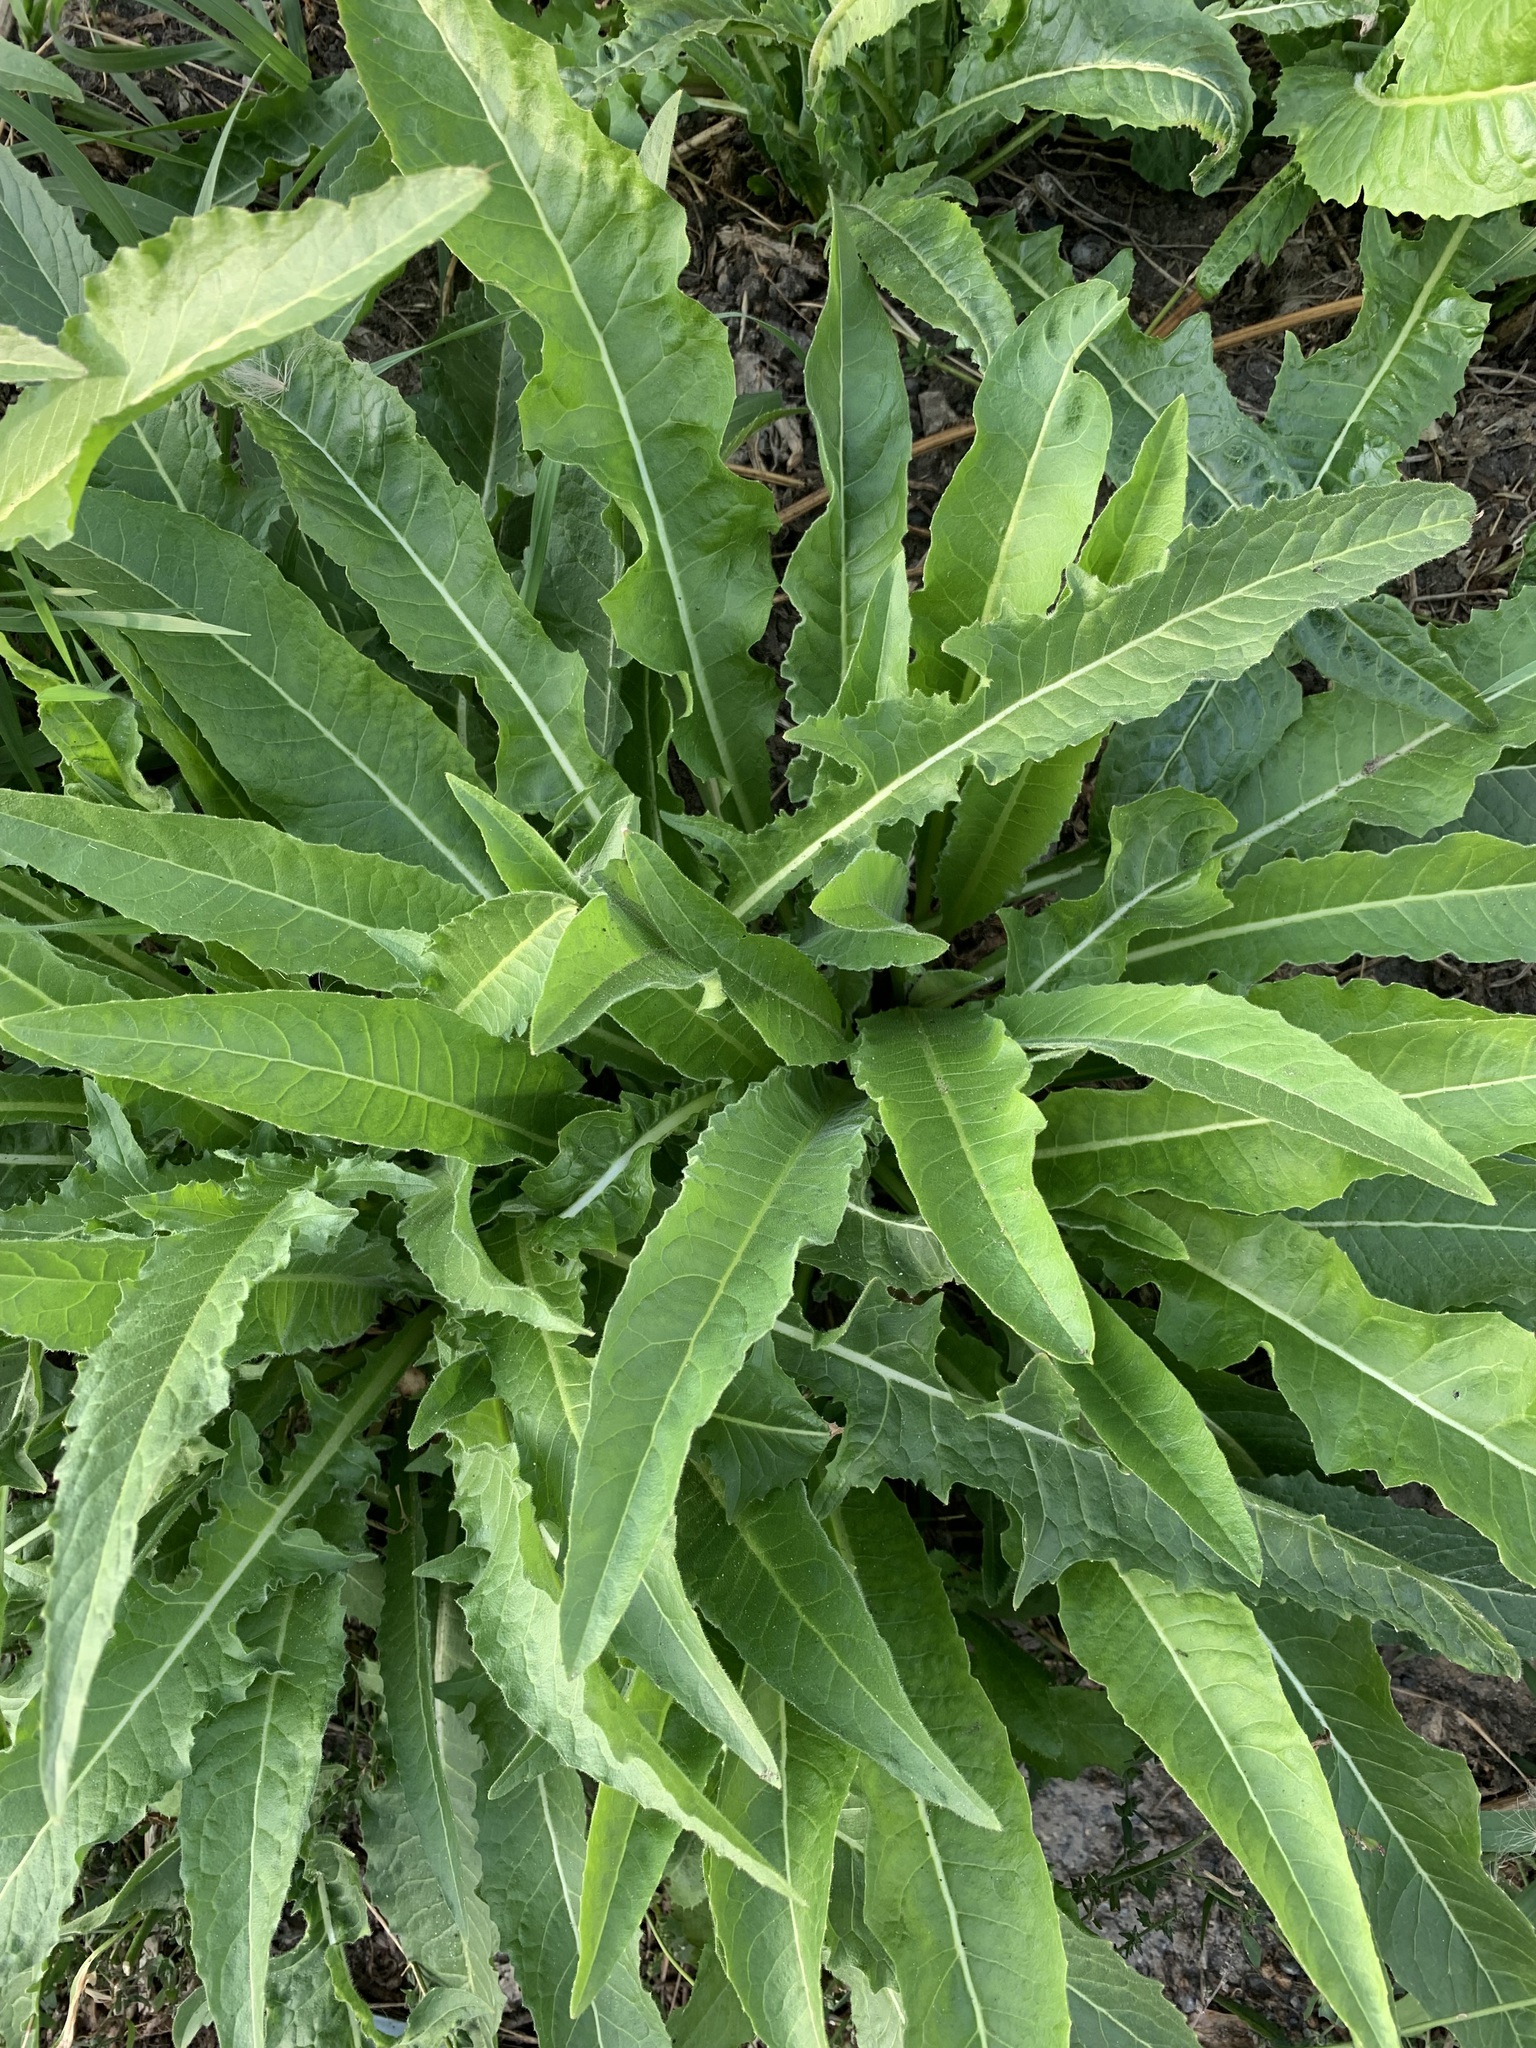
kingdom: Plantae
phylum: Tracheophyta
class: Magnoliopsida
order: Brassicales
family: Brassicaceae
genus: Bunias
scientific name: Bunias orientalis
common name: Warty-cabbage
